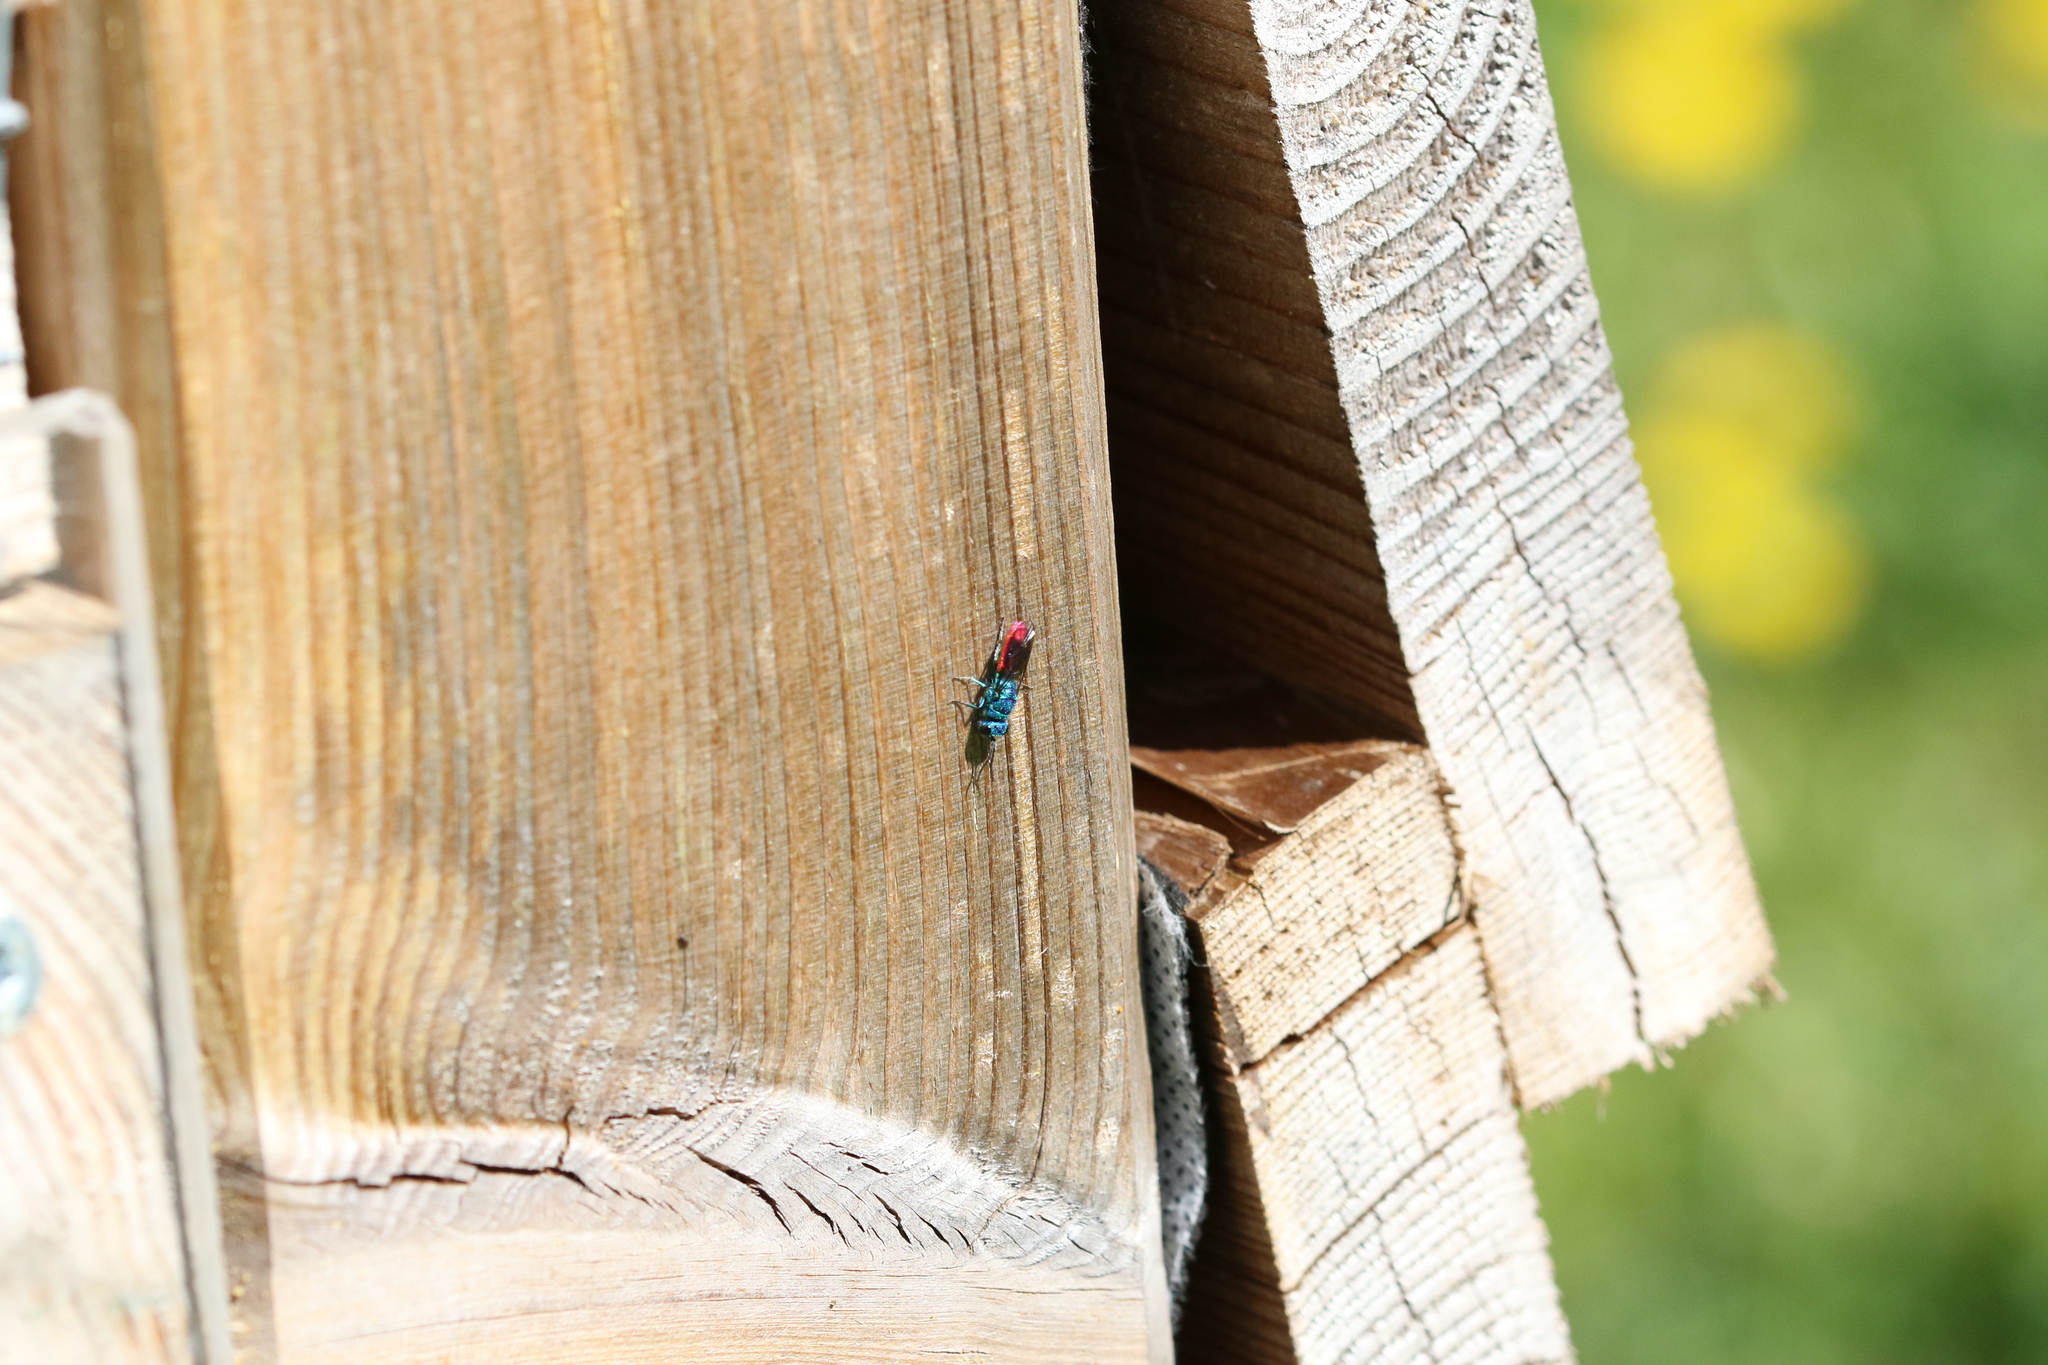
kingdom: Animalia
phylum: Arthropoda
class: Insecta
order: Hymenoptera
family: Chrysididae
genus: Chrysis
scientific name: Chrysis terminata
